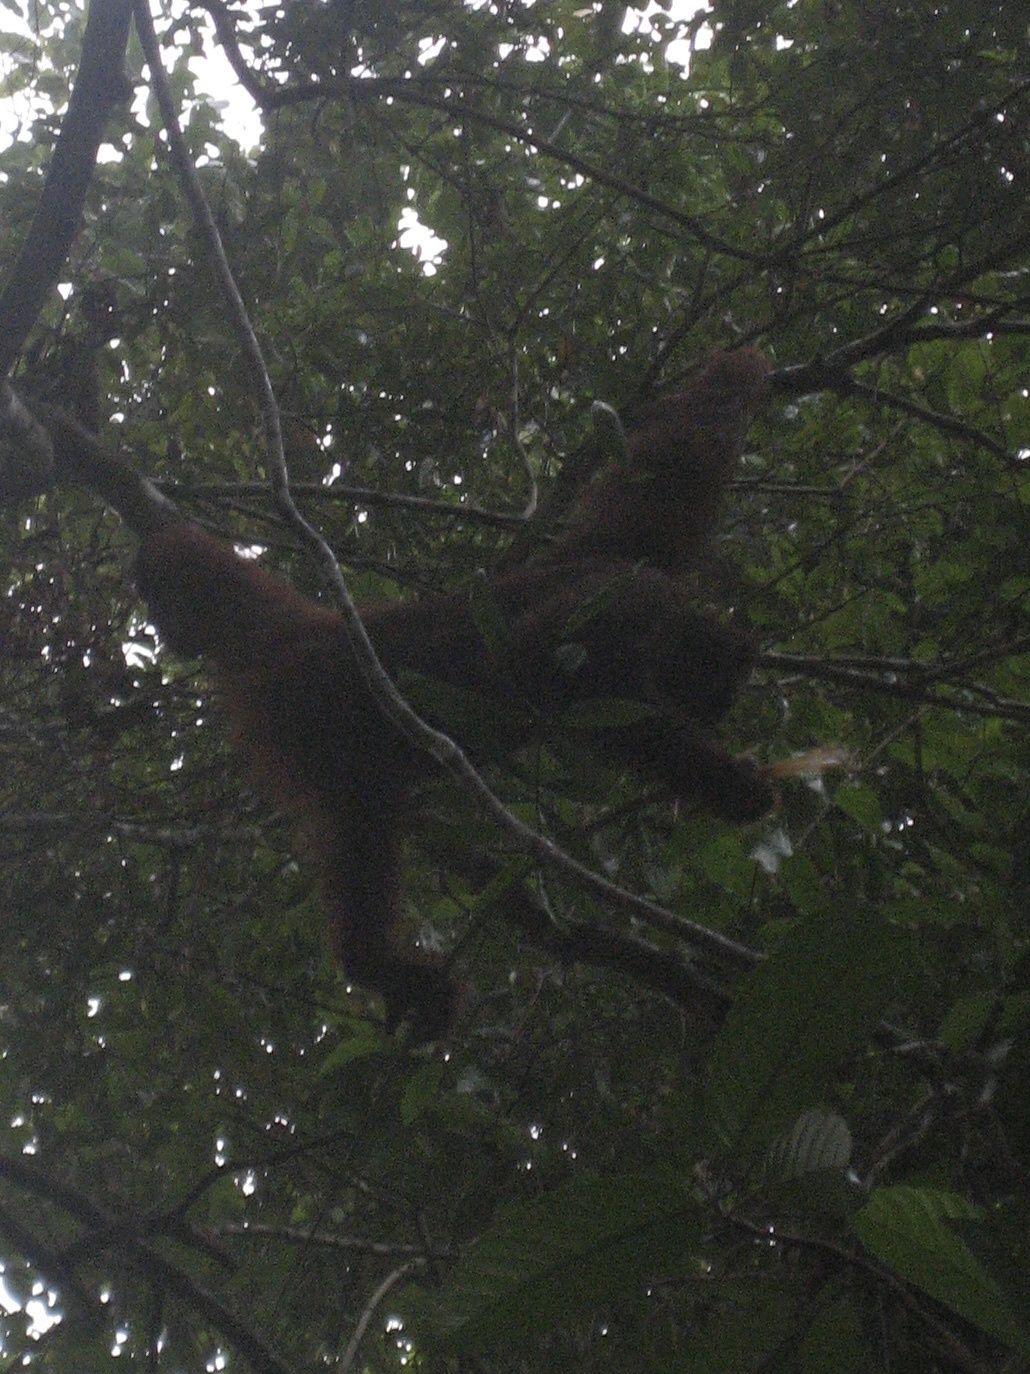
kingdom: Animalia
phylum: Chordata
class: Mammalia
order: Primates
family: Hominidae
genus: Pongo
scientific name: Pongo pygmaeus
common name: Bornean orangutan
